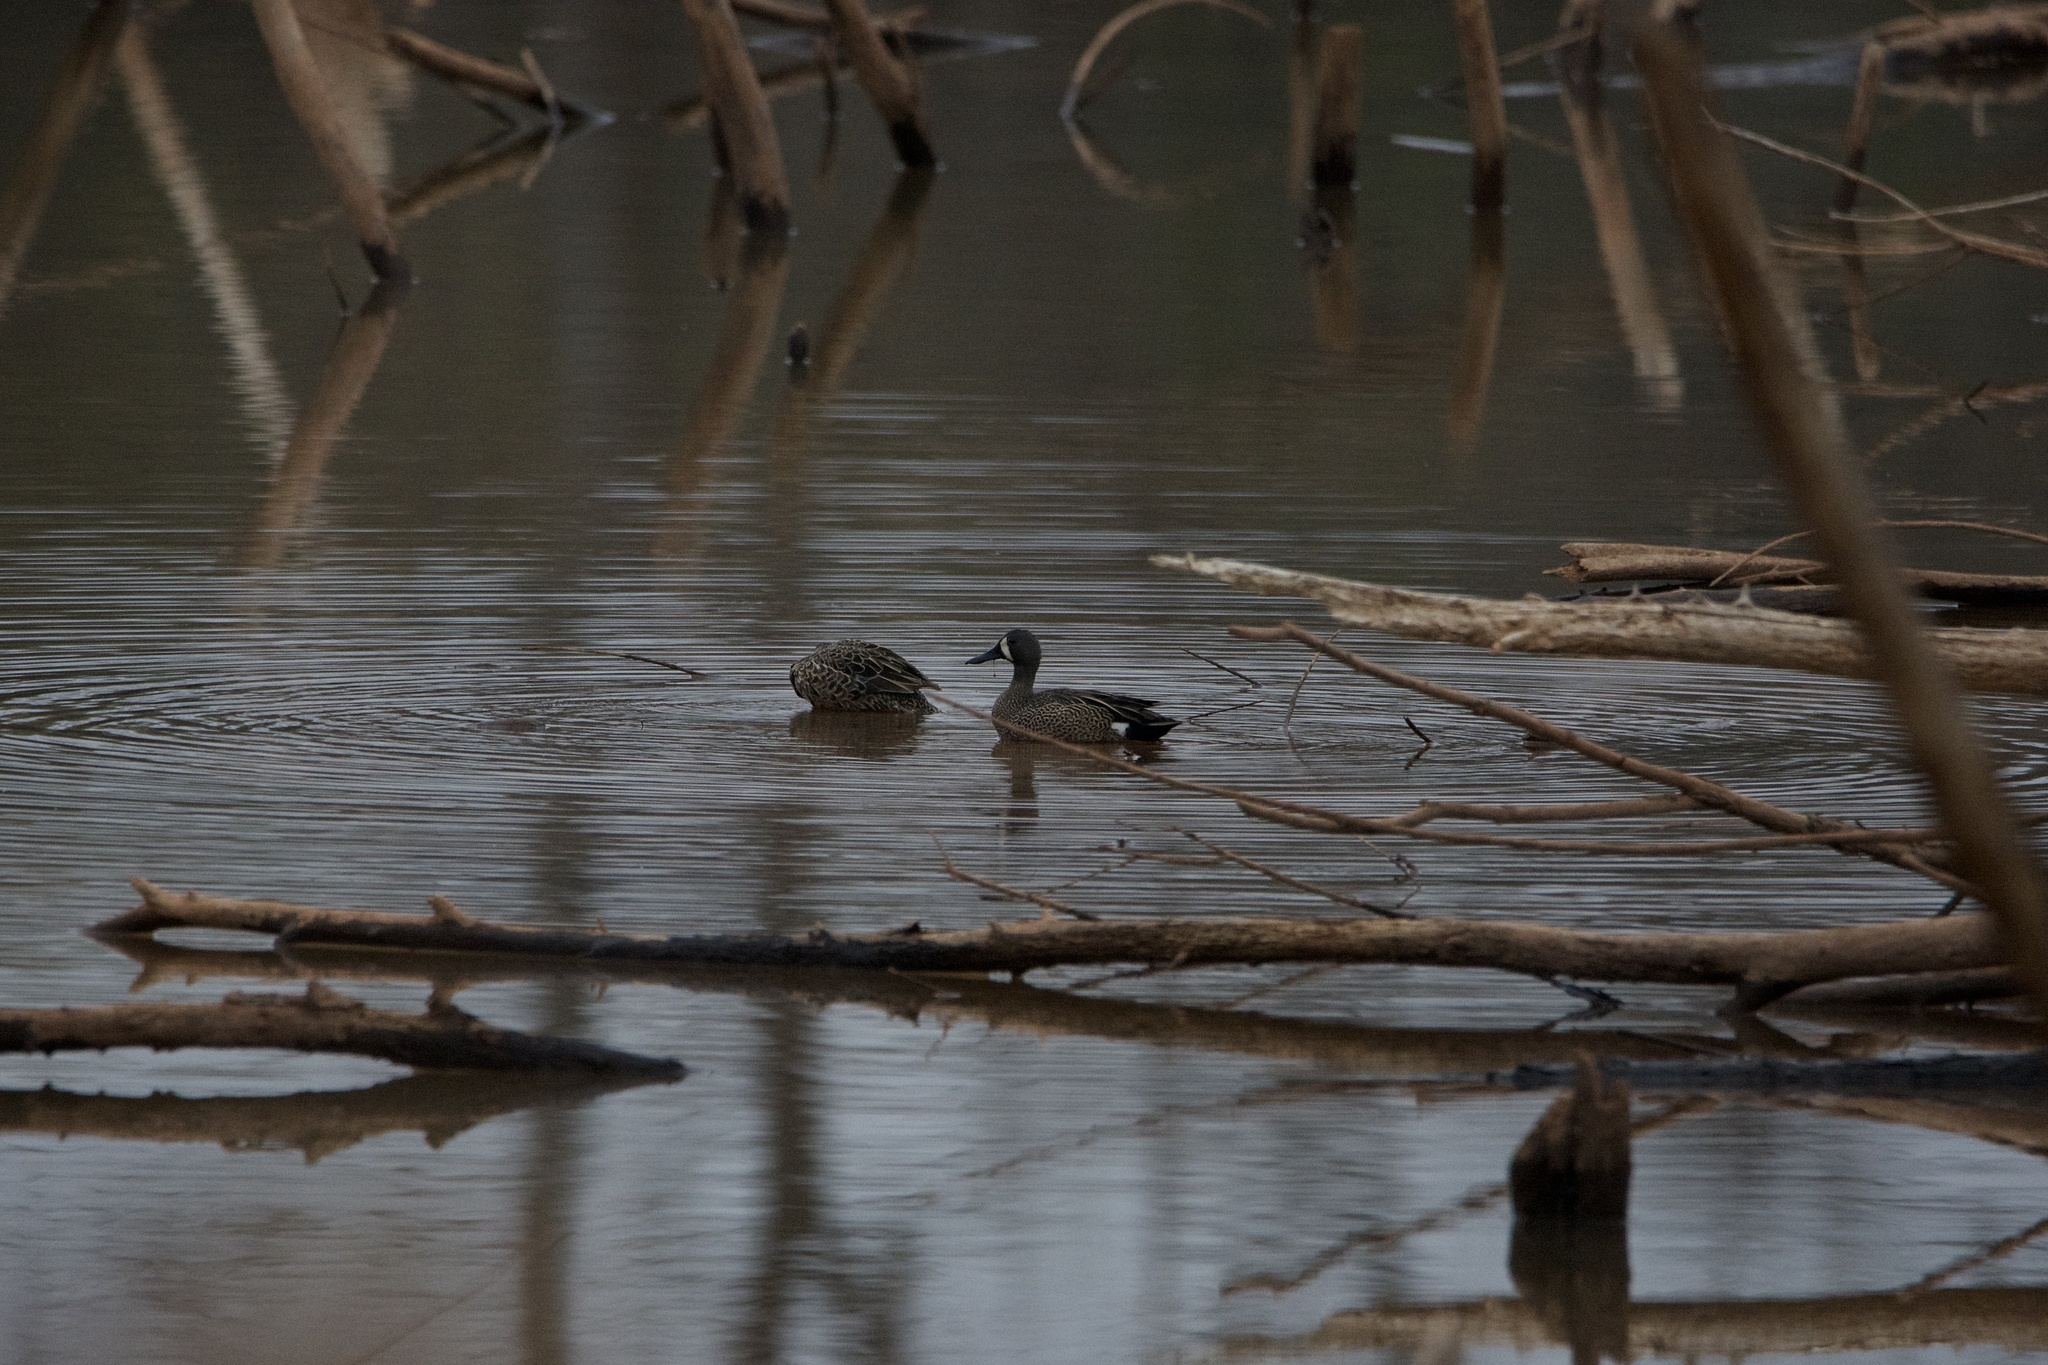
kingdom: Animalia
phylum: Chordata
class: Aves
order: Anseriformes
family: Anatidae
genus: Spatula
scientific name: Spatula discors
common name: Blue-winged teal
